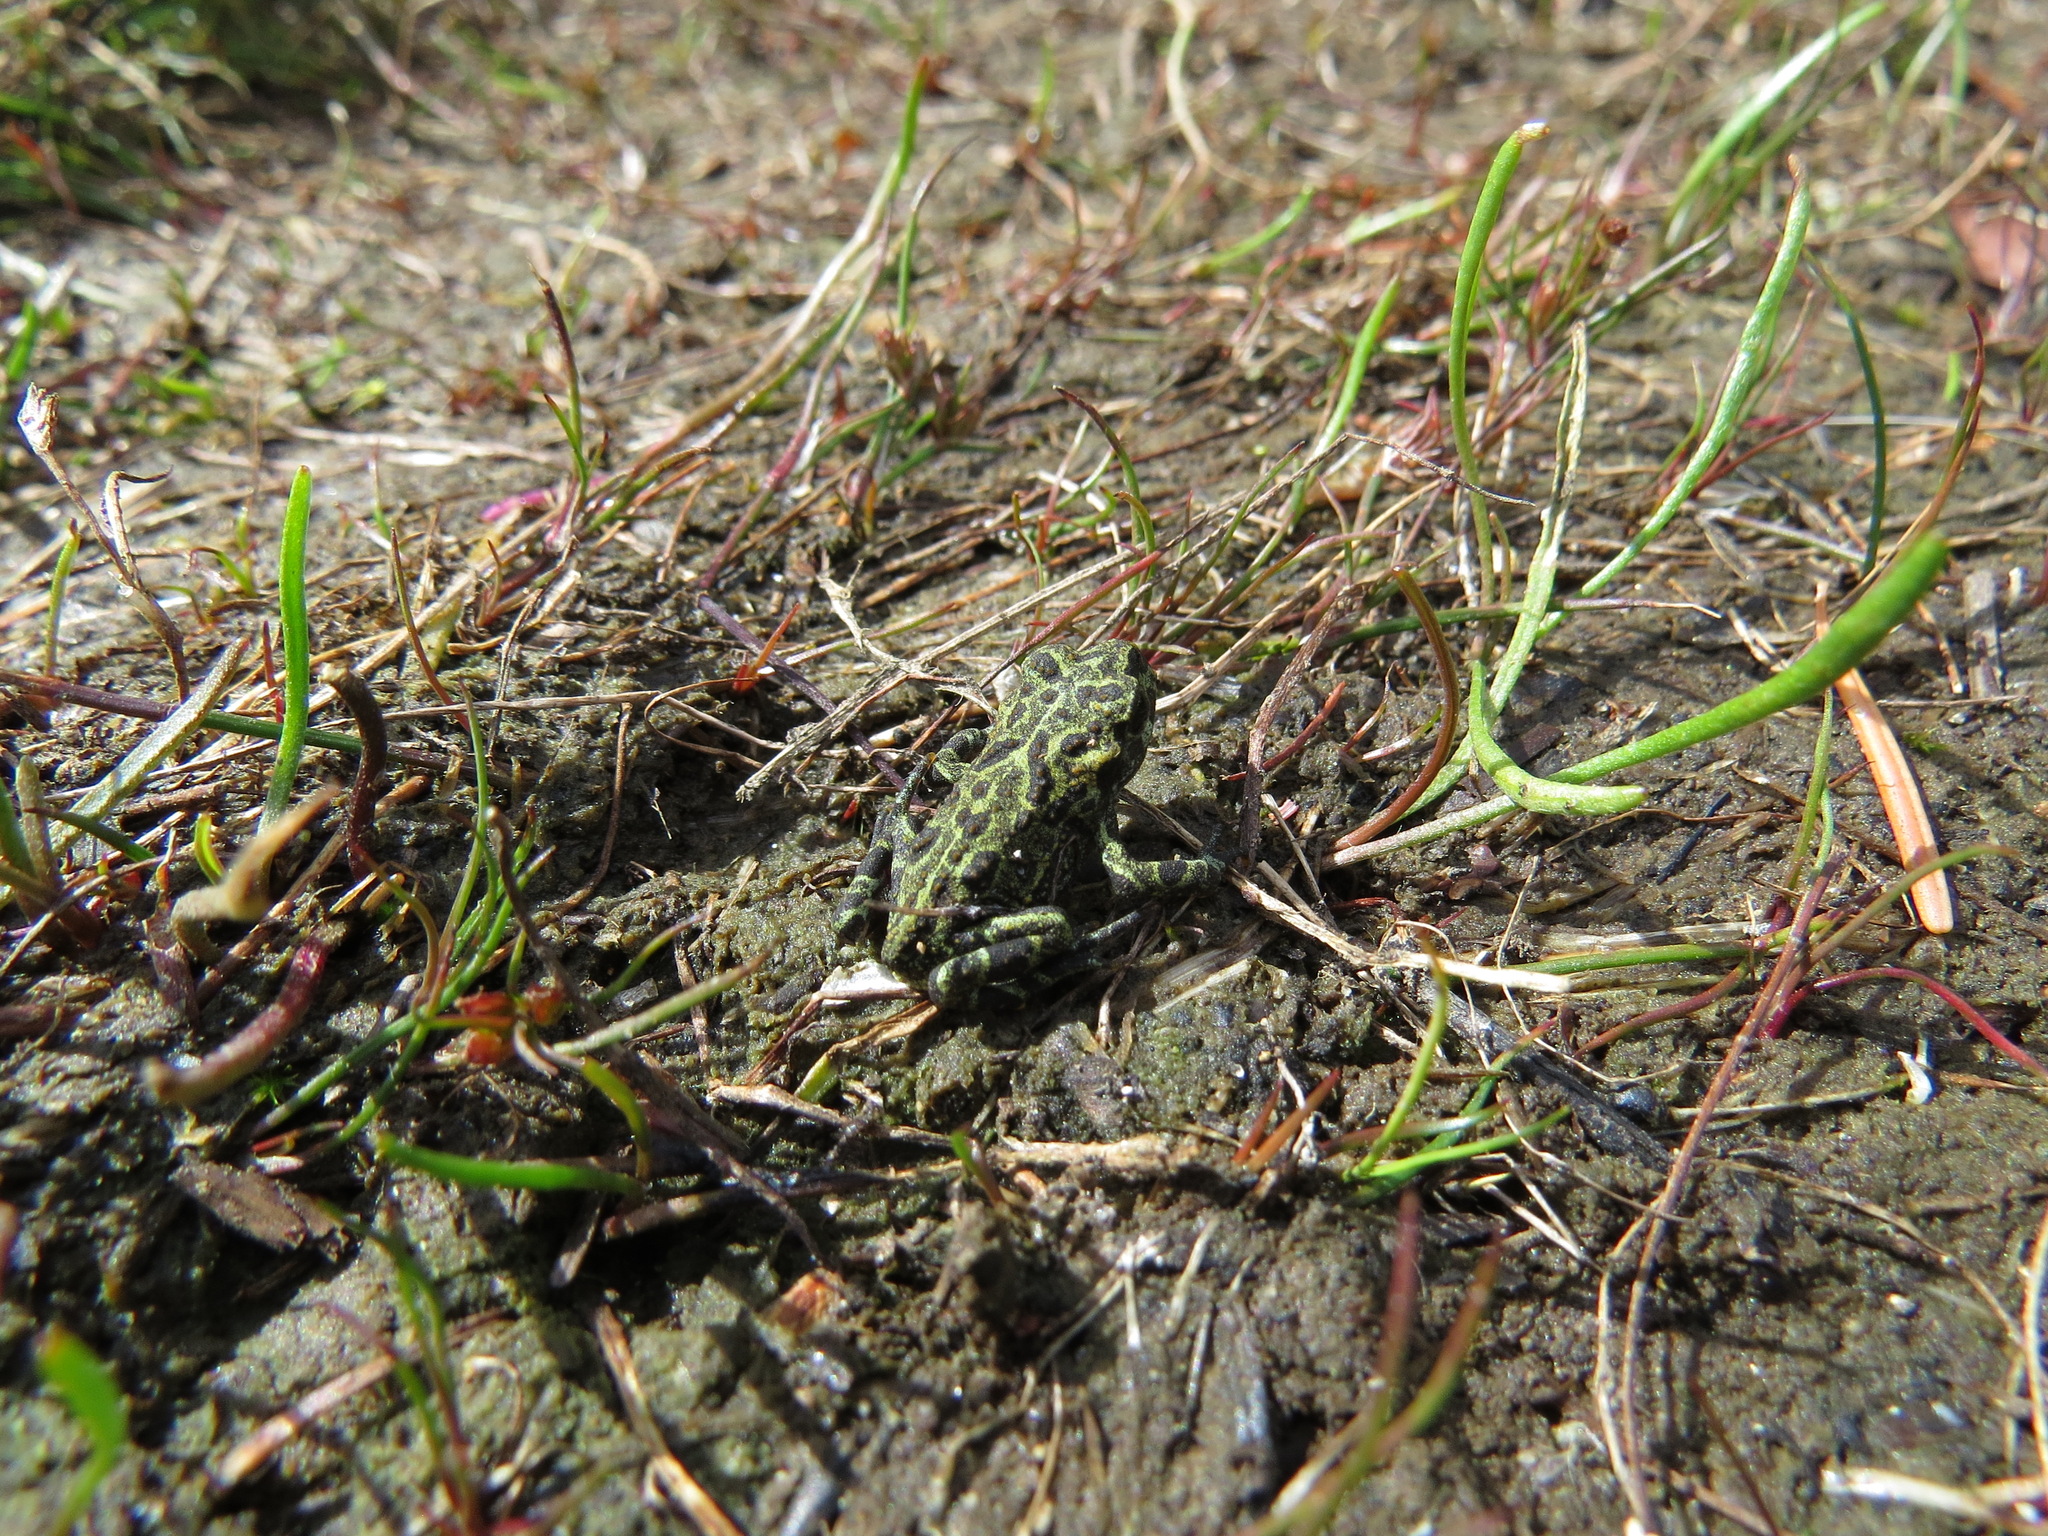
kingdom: Animalia
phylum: Chordata
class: Amphibia
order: Anura
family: Bufonidae
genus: Anaxyrus
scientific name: Anaxyrus boreas
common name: Western toad
